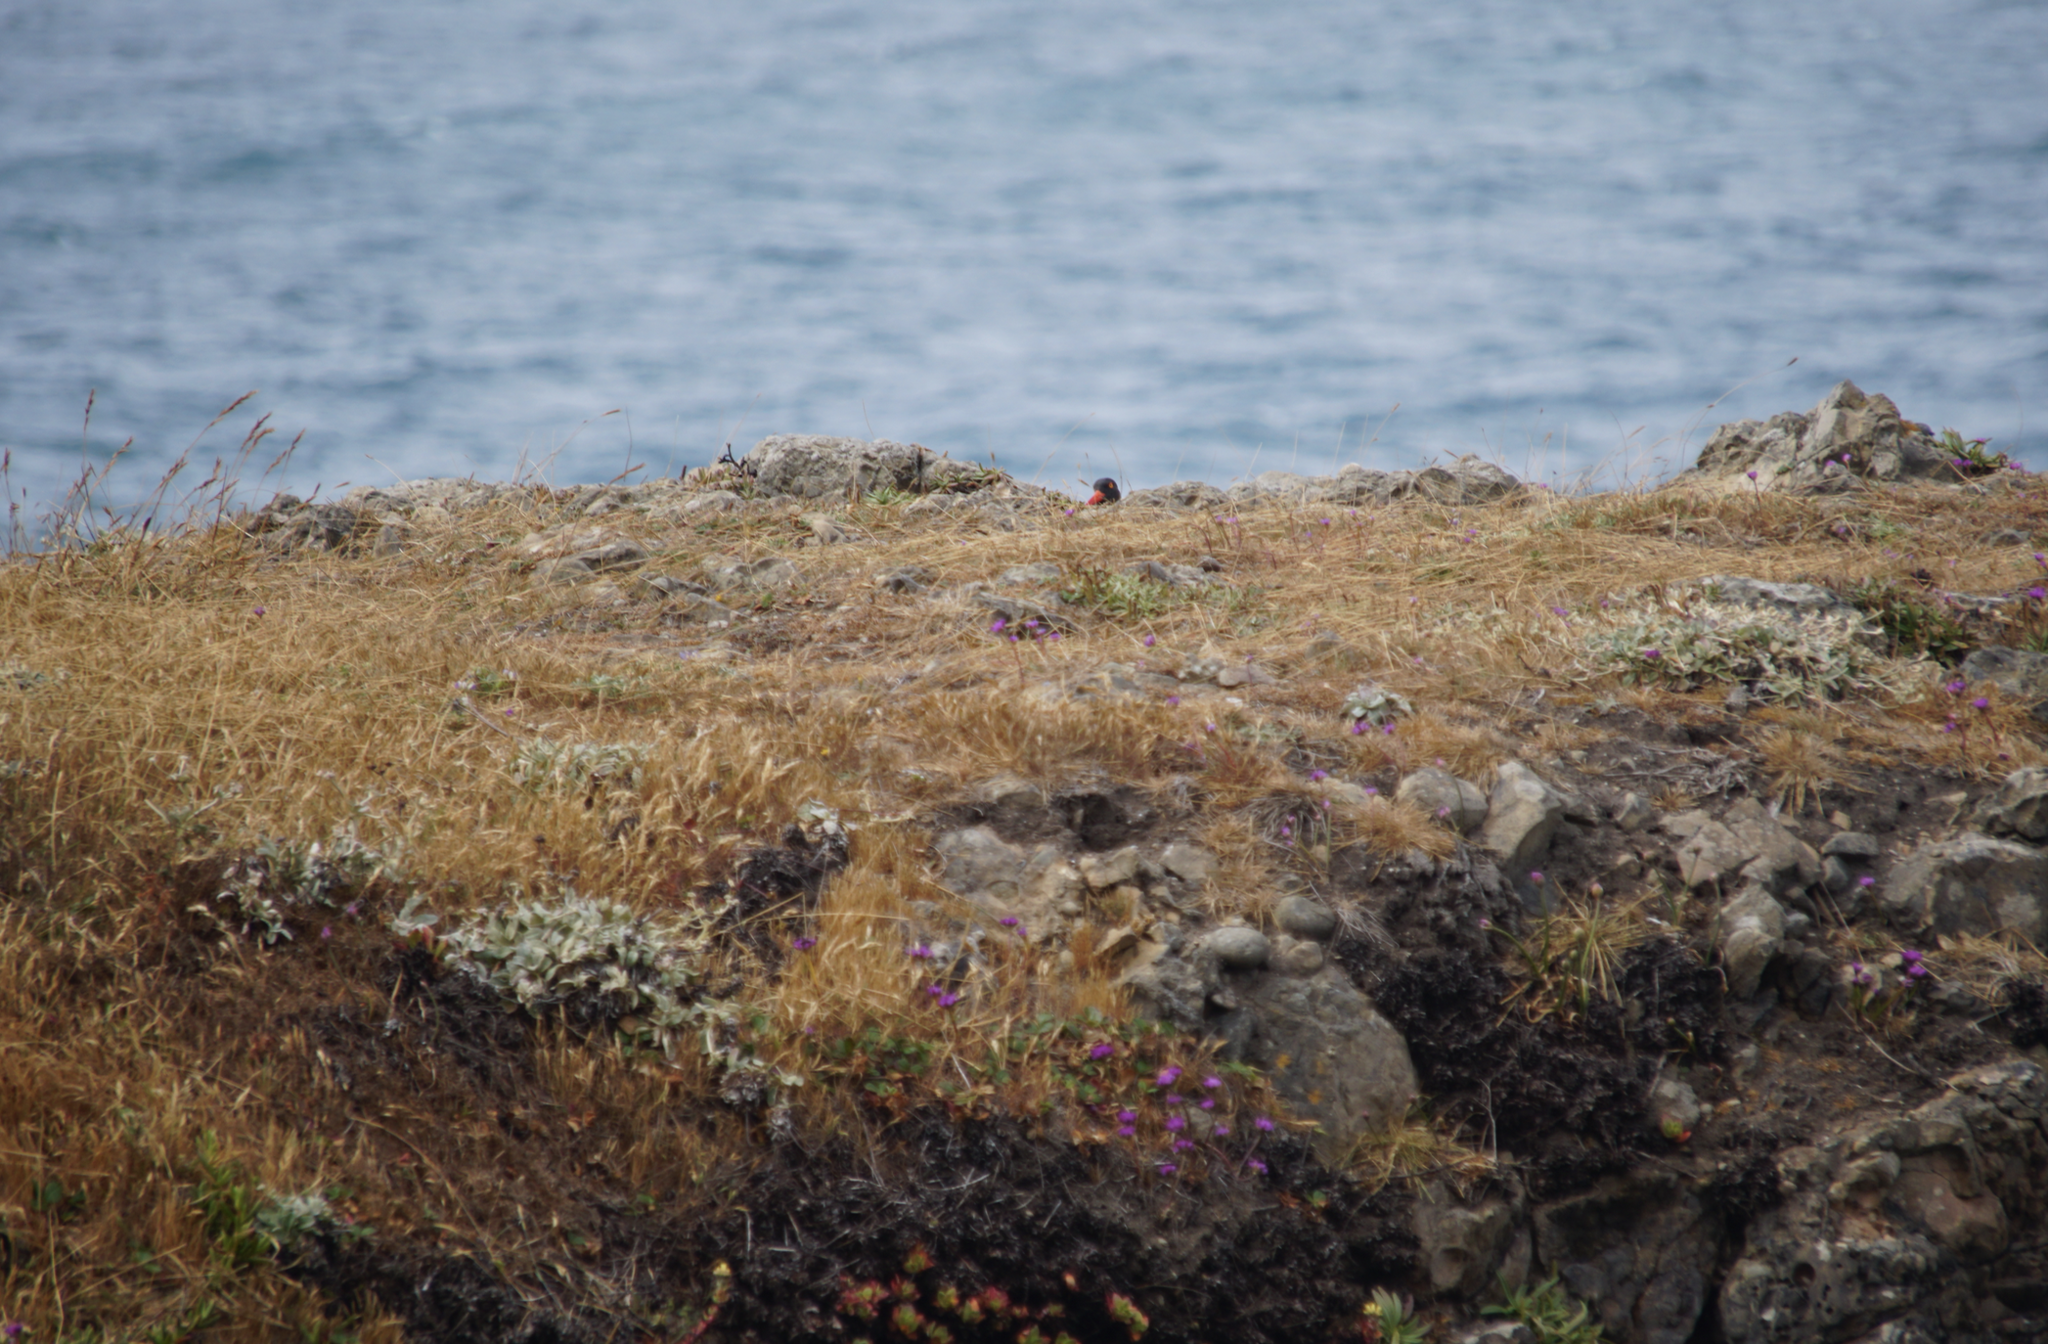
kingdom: Animalia
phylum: Chordata
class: Aves
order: Charadriiformes
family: Haematopodidae
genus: Haematopus
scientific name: Haematopus bachmani
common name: Black oystercatcher
